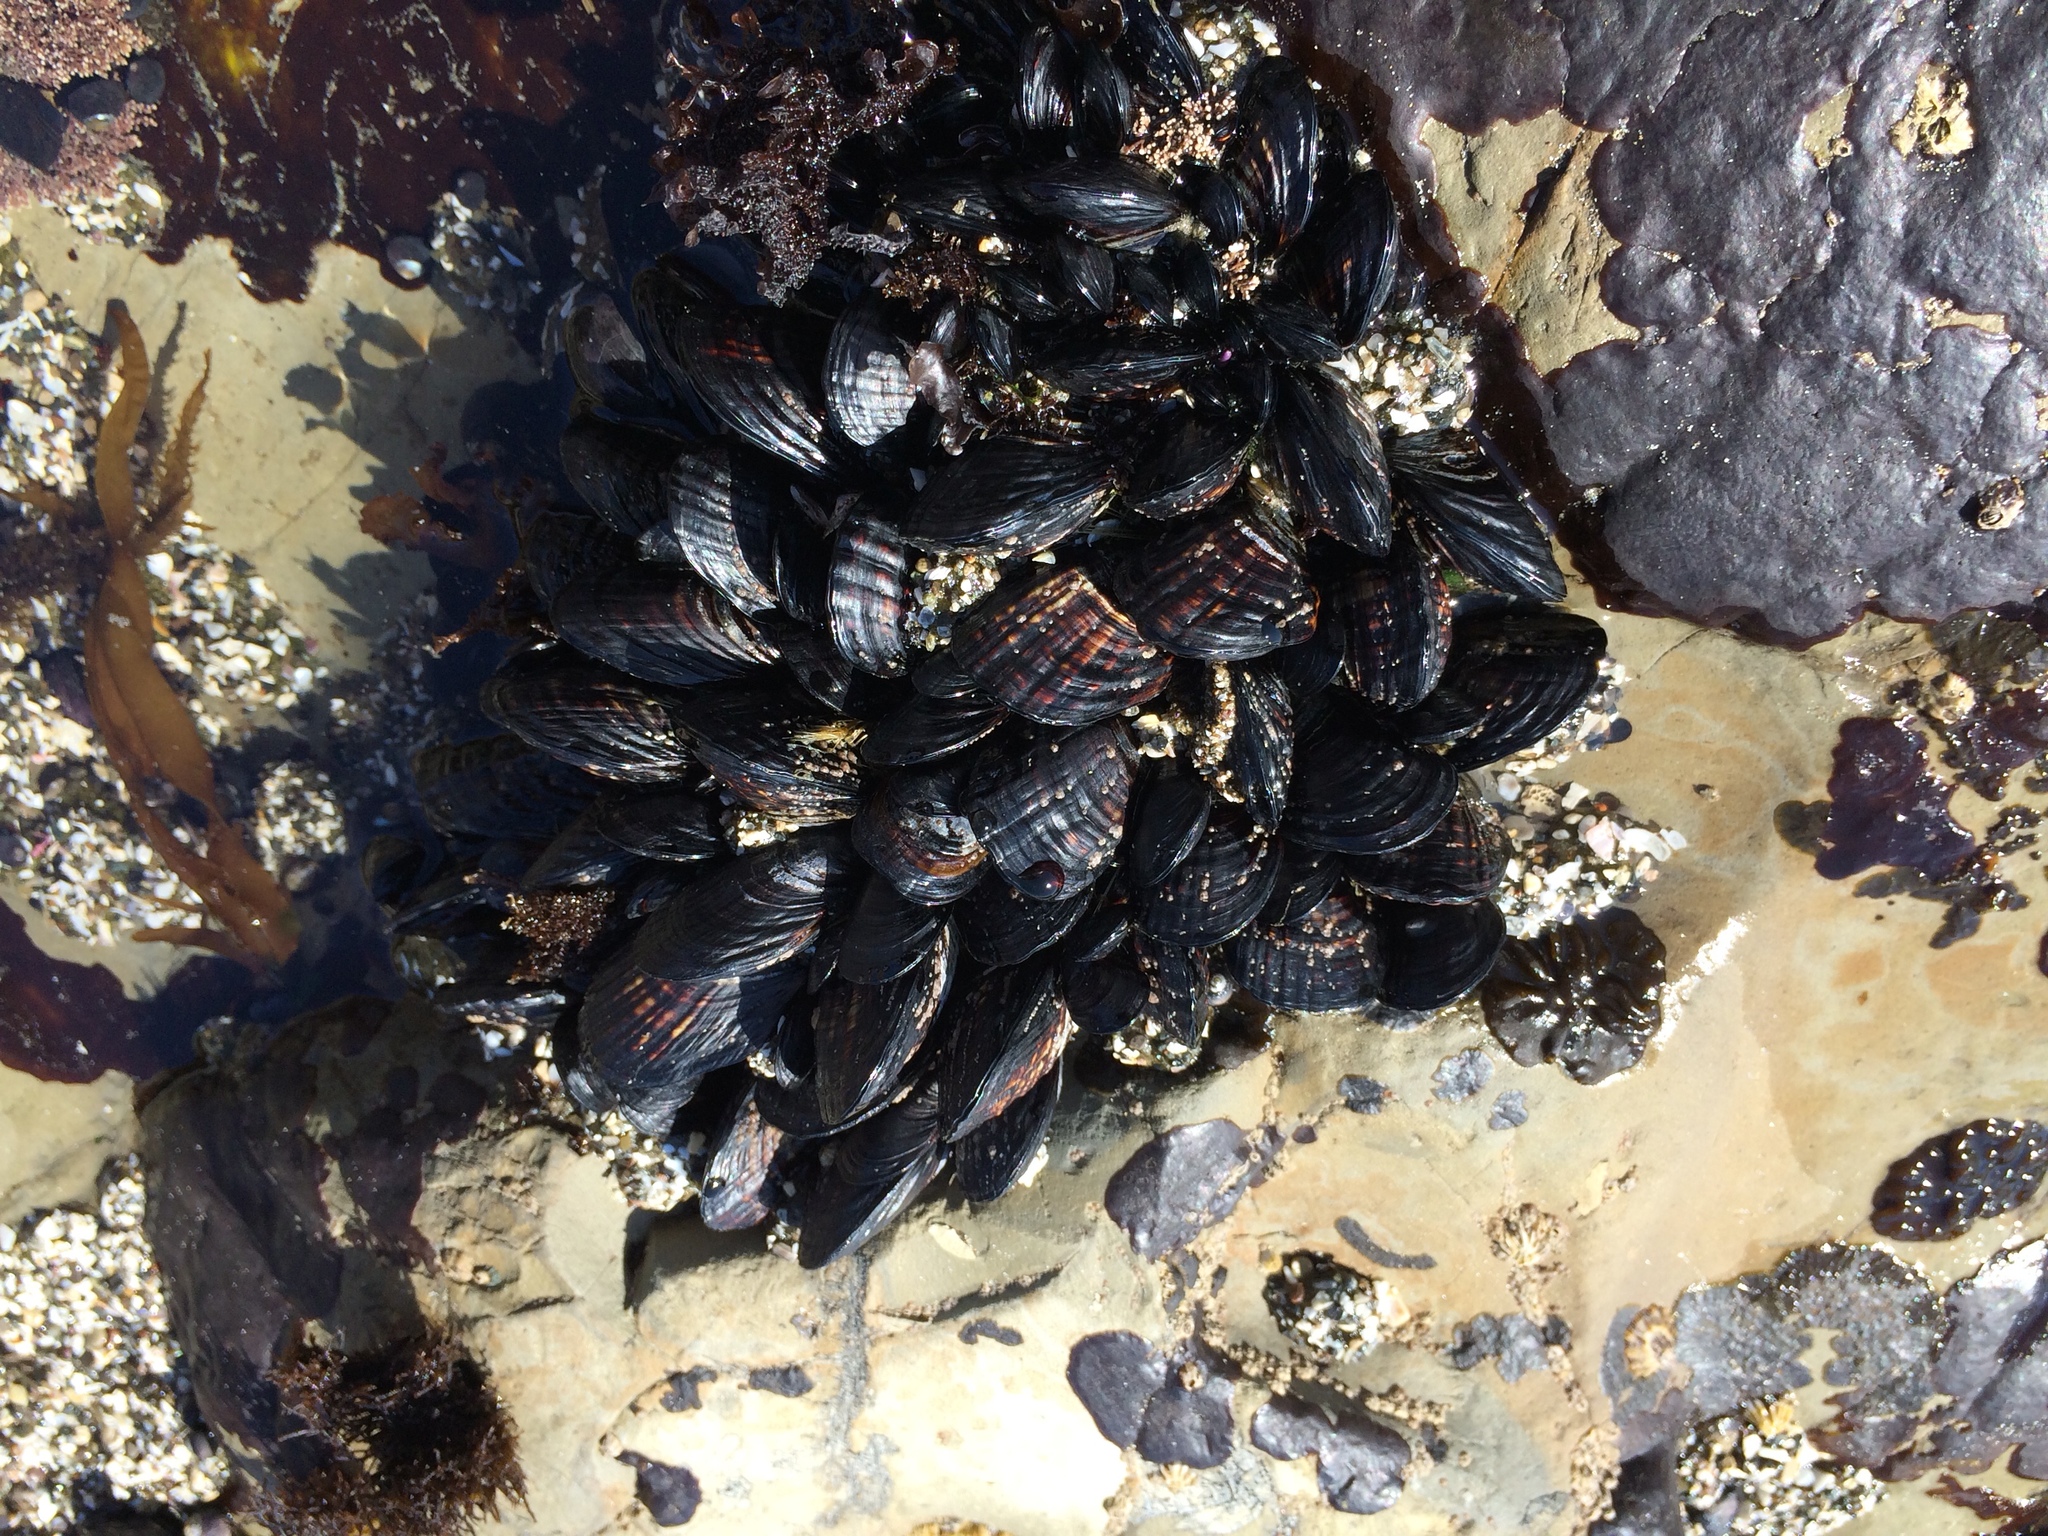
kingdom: Animalia
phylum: Mollusca
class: Bivalvia
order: Mytilida
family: Mytilidae
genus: Mytilus
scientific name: Mytilus californianus
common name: California mussel
